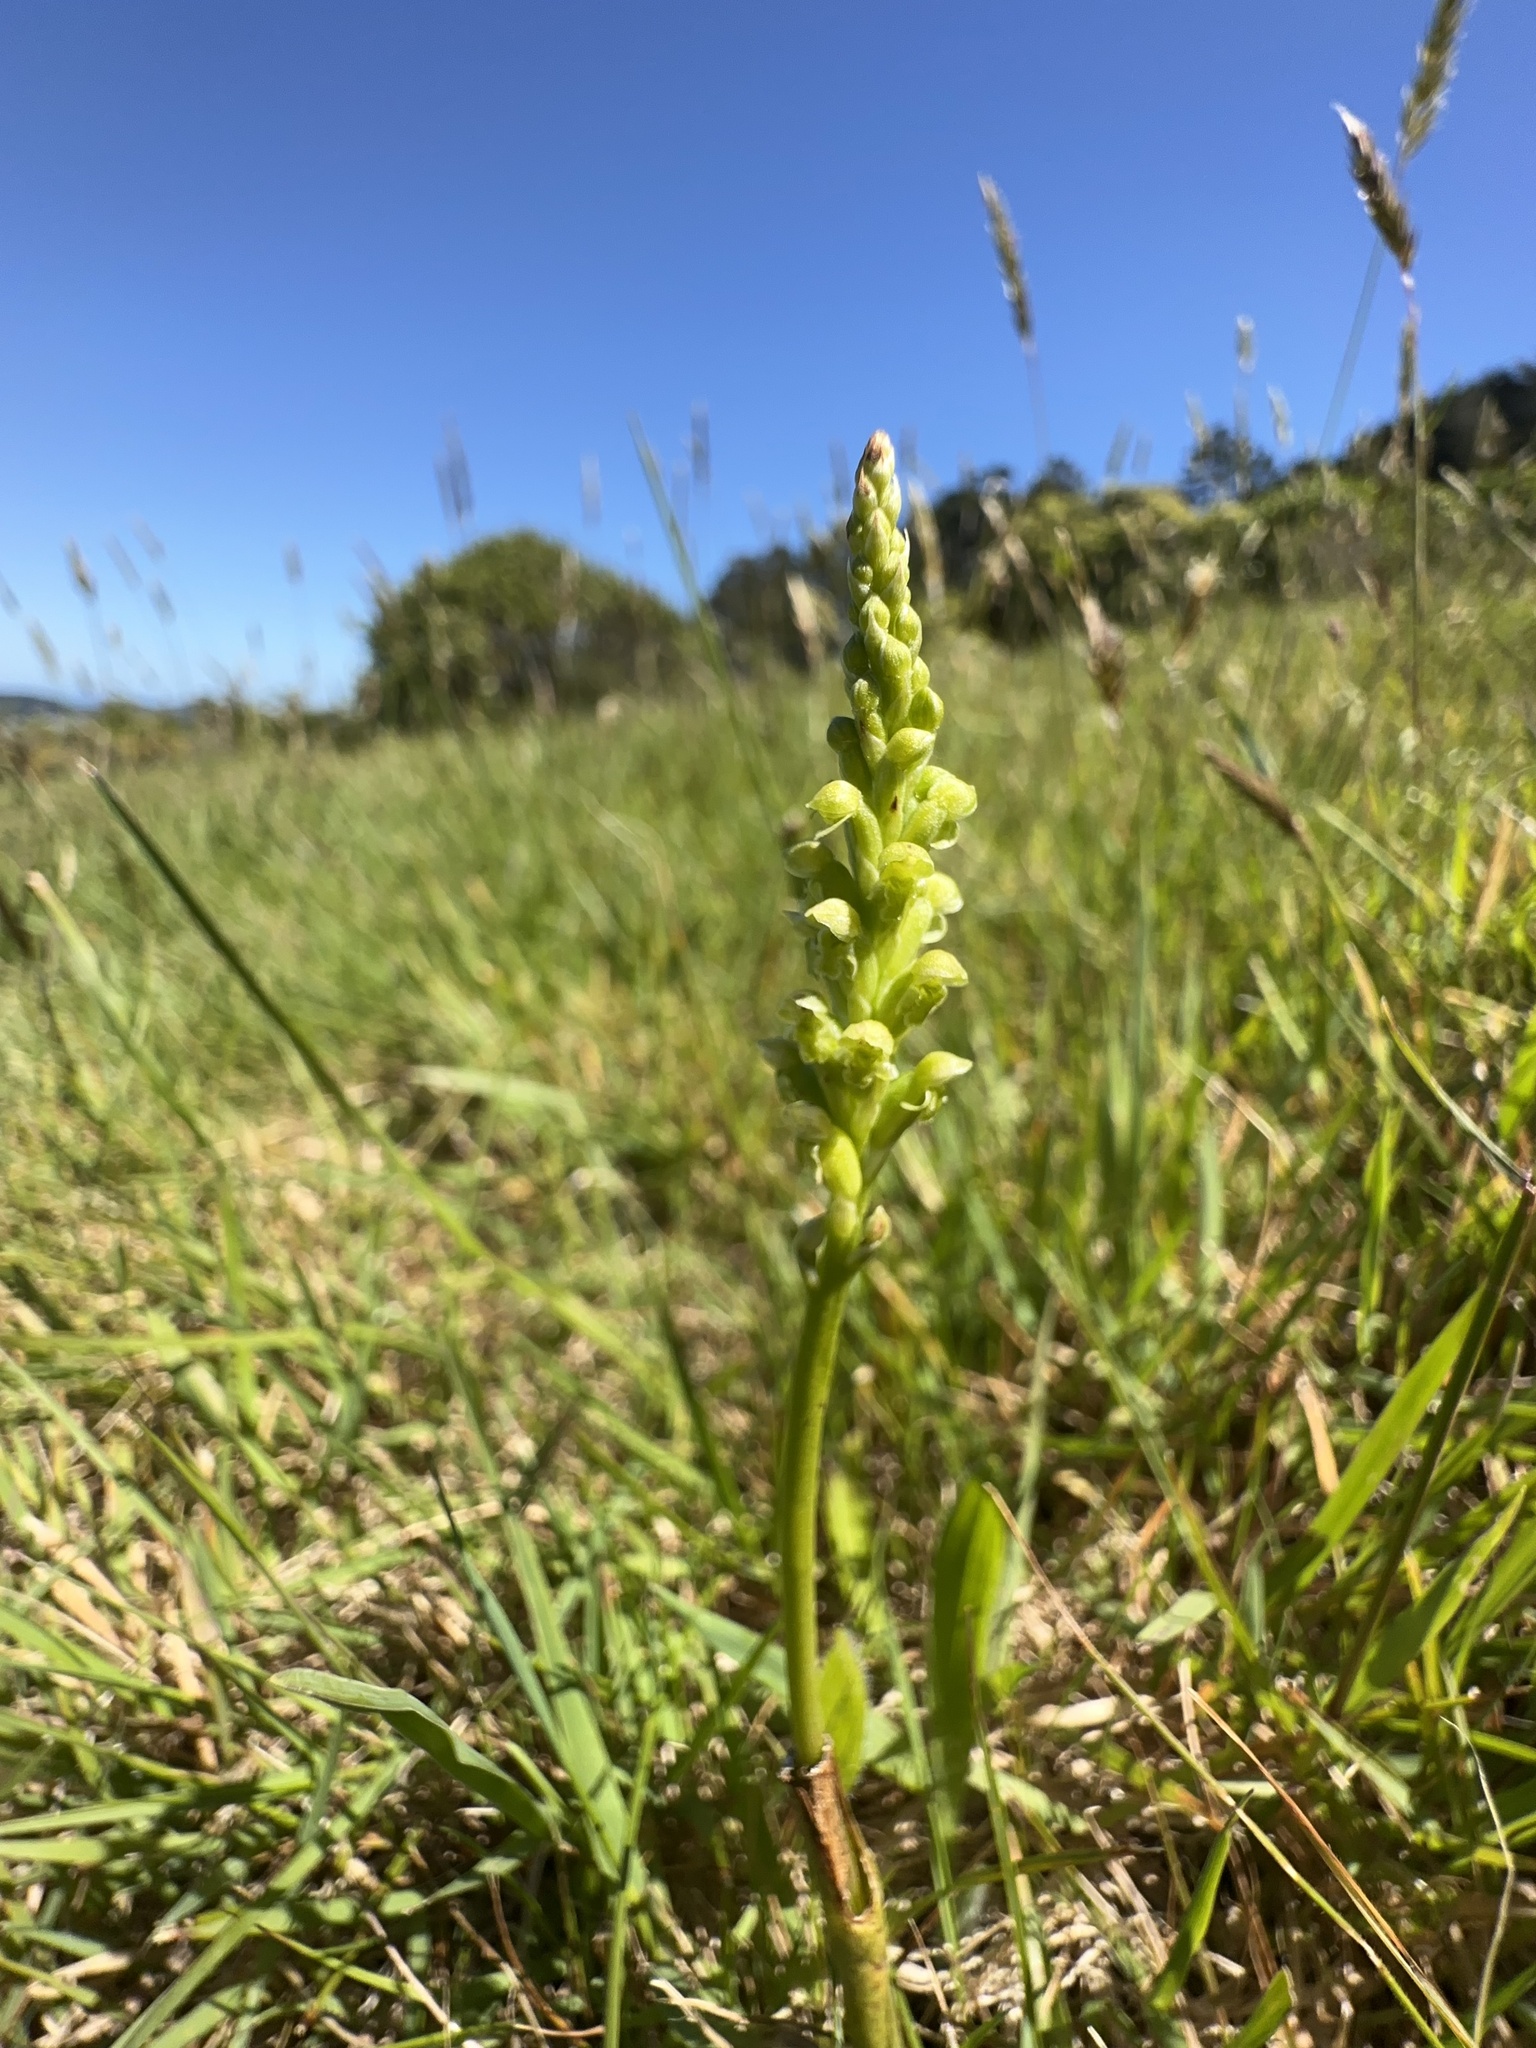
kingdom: Plantae
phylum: Tracheophyta
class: Liliopsida
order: Asparagales
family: Orchidaceae
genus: Microtis
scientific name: Microtis unifolia
